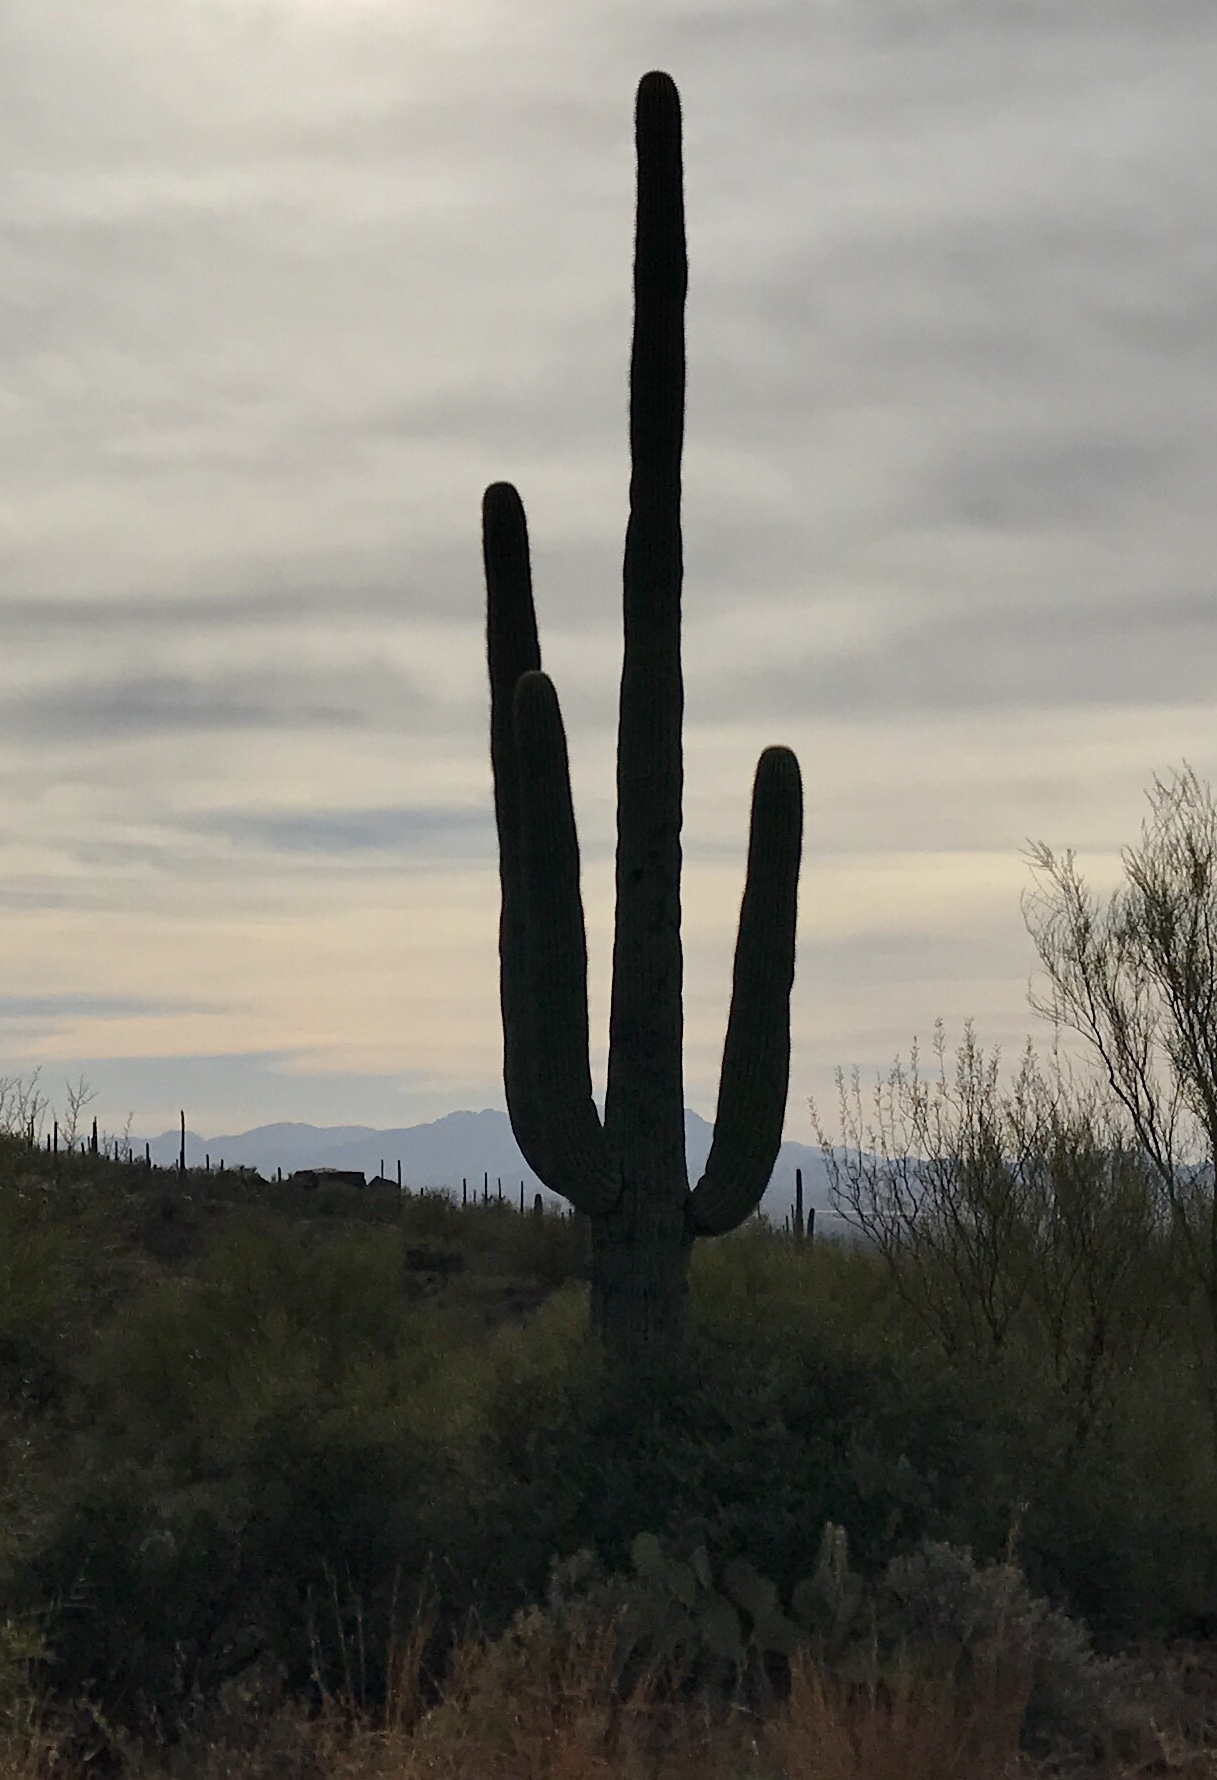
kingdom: Plantae
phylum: Tracheophyta
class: Magnoliopsida
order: Caryophyllales
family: Cactaceae
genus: Carnegiea
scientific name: Carnegiea gigantea
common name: Saguaro
